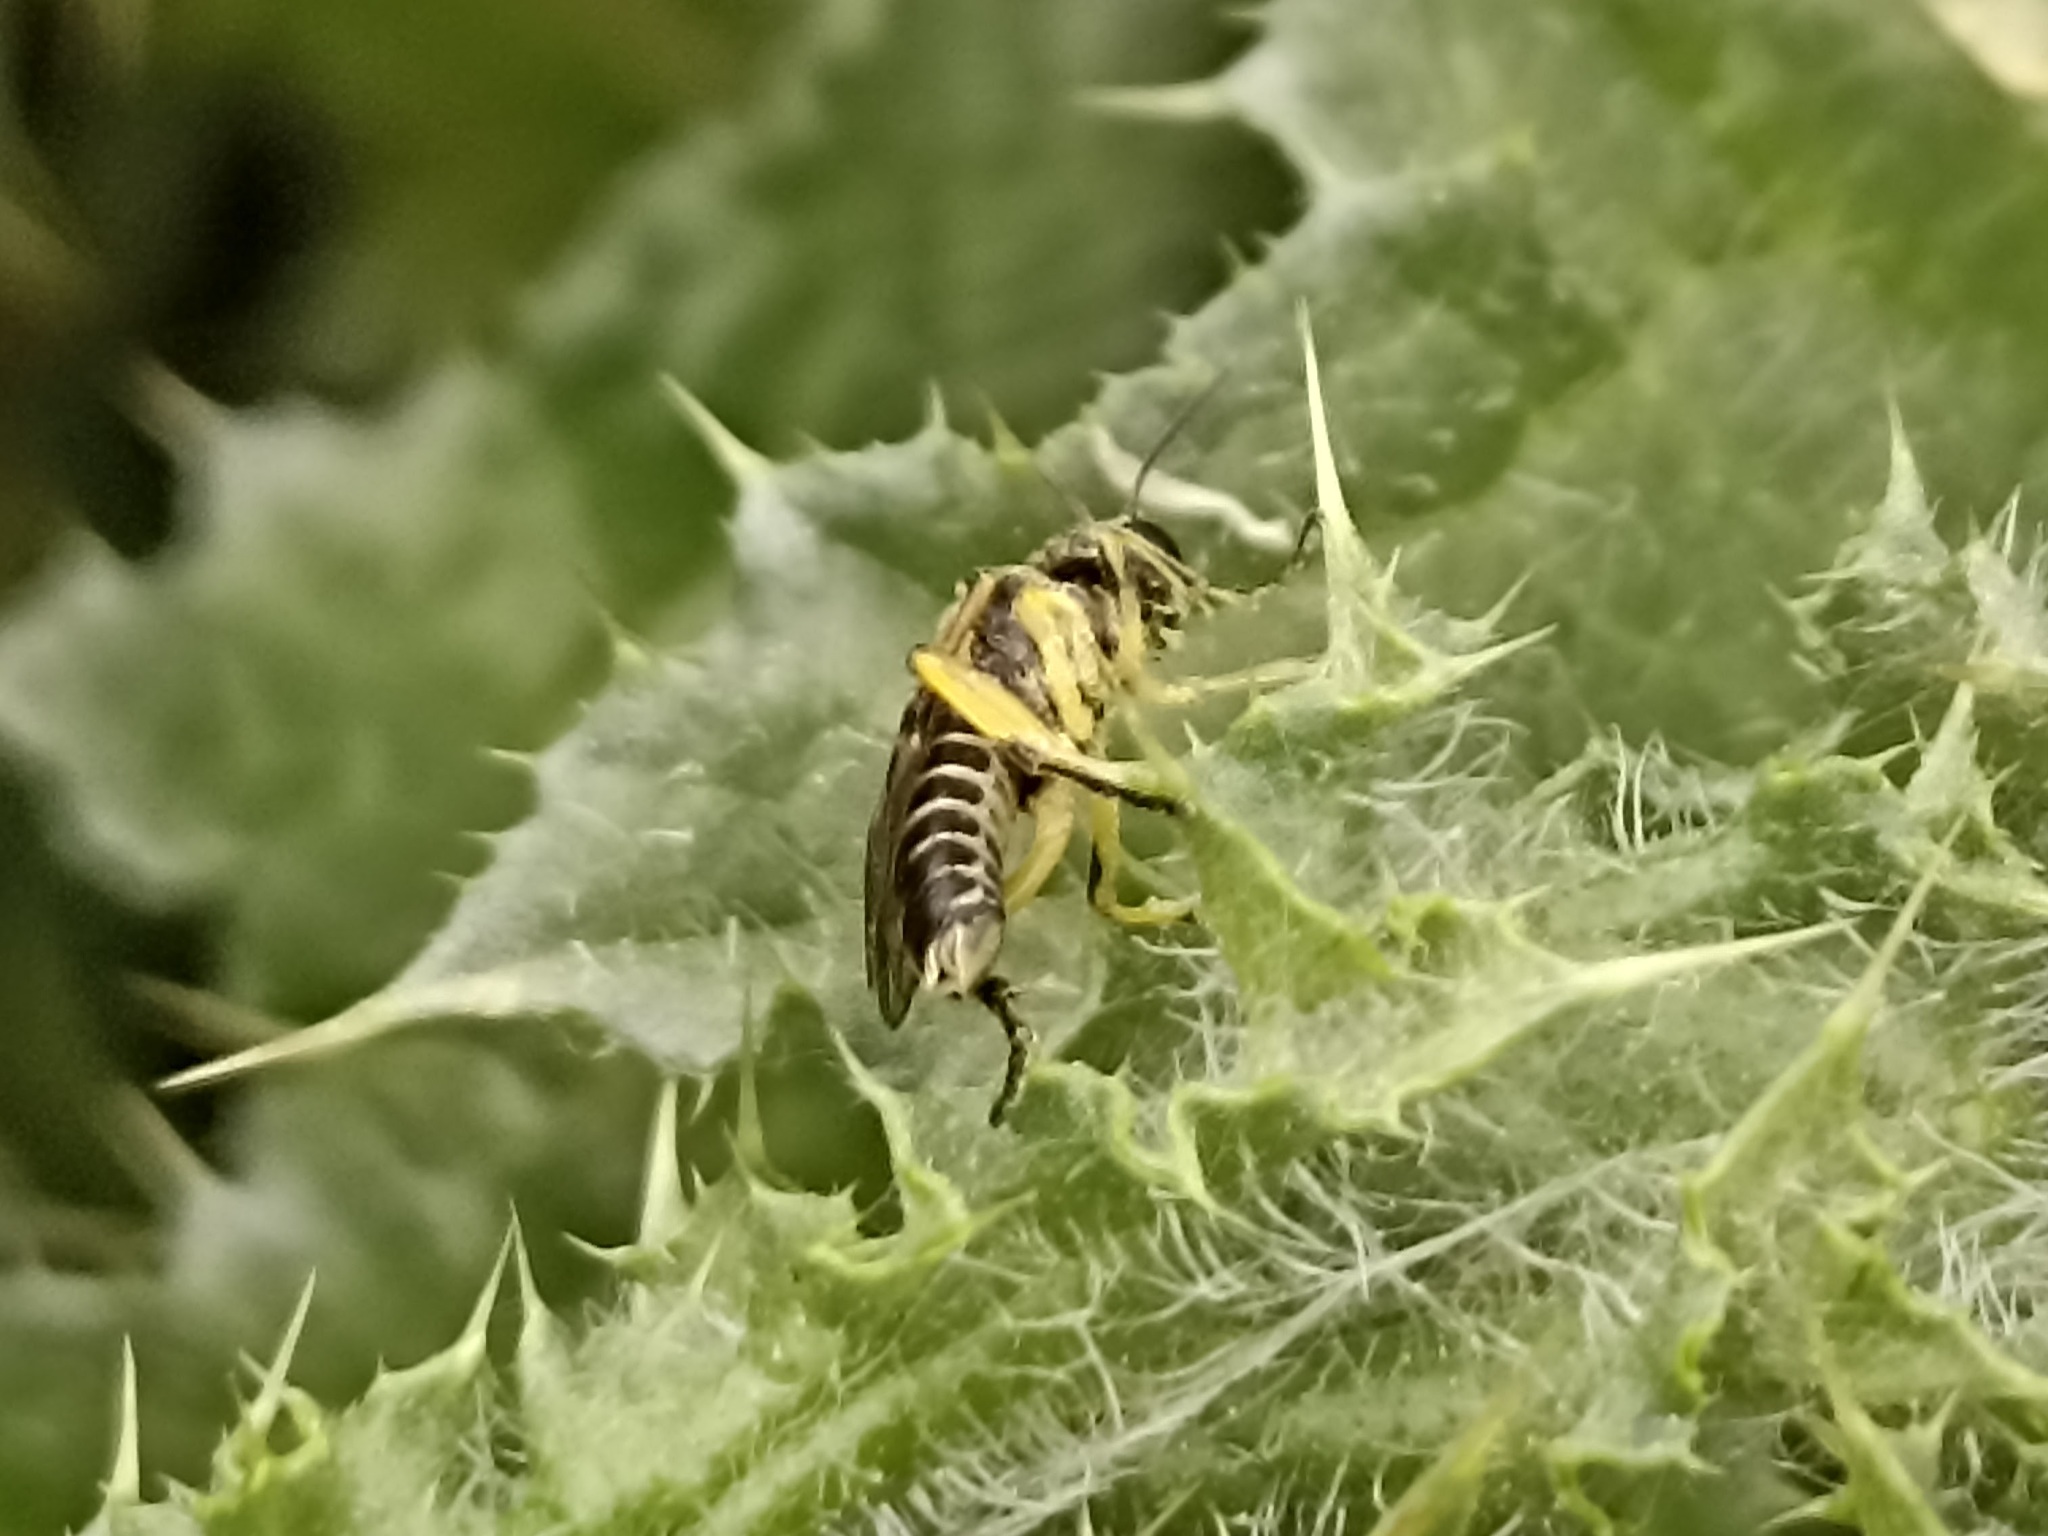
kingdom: Animalia
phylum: Arthropoda
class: Insecta
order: Hymenoptera
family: Tenthredinidae
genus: Tenthredo
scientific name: Tenthredo limbalis
